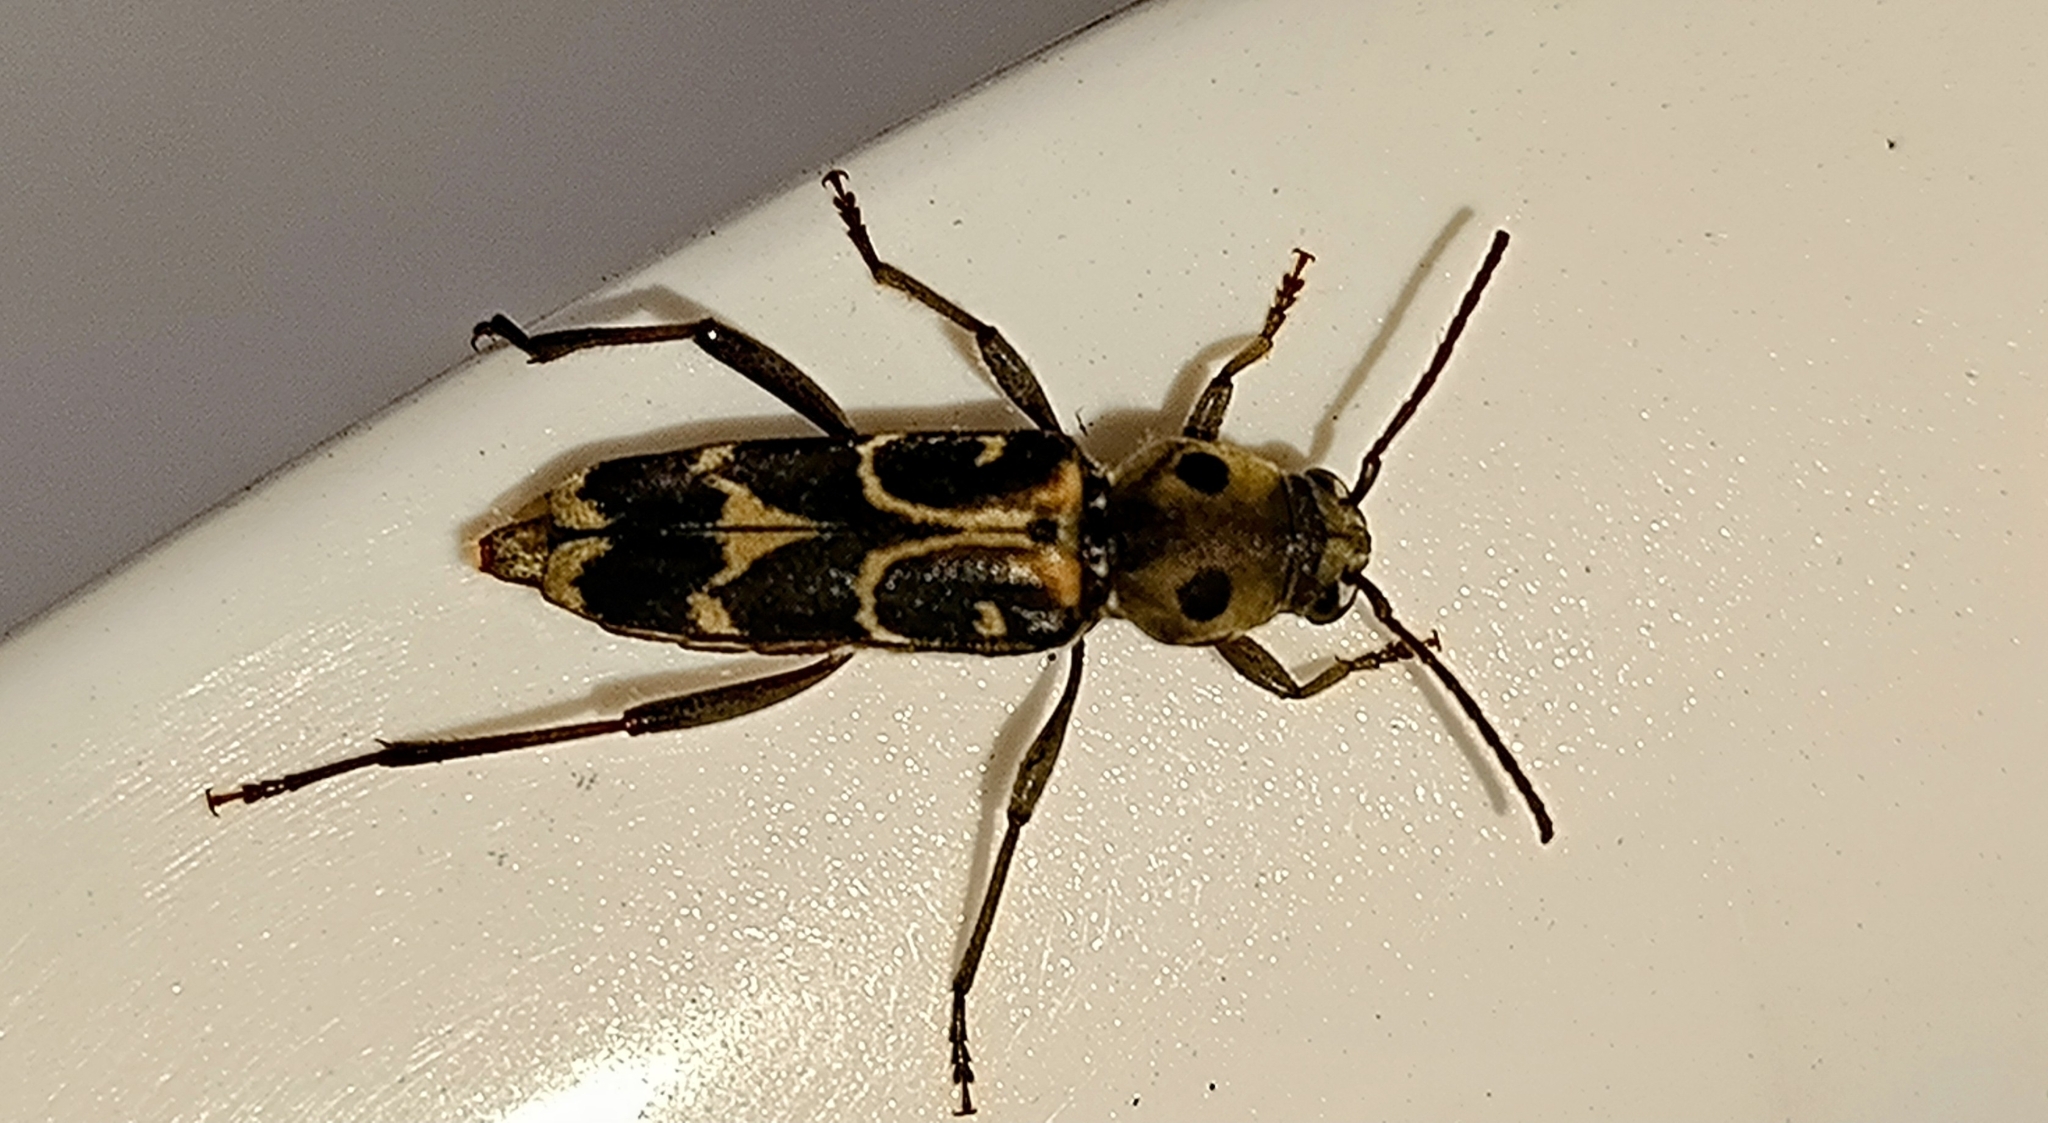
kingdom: Animalia
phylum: Arthropoda
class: Insecta
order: Coleoptera
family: Cerambycidae
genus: Xylotrechus
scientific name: Xylotrechus subscutellatus
